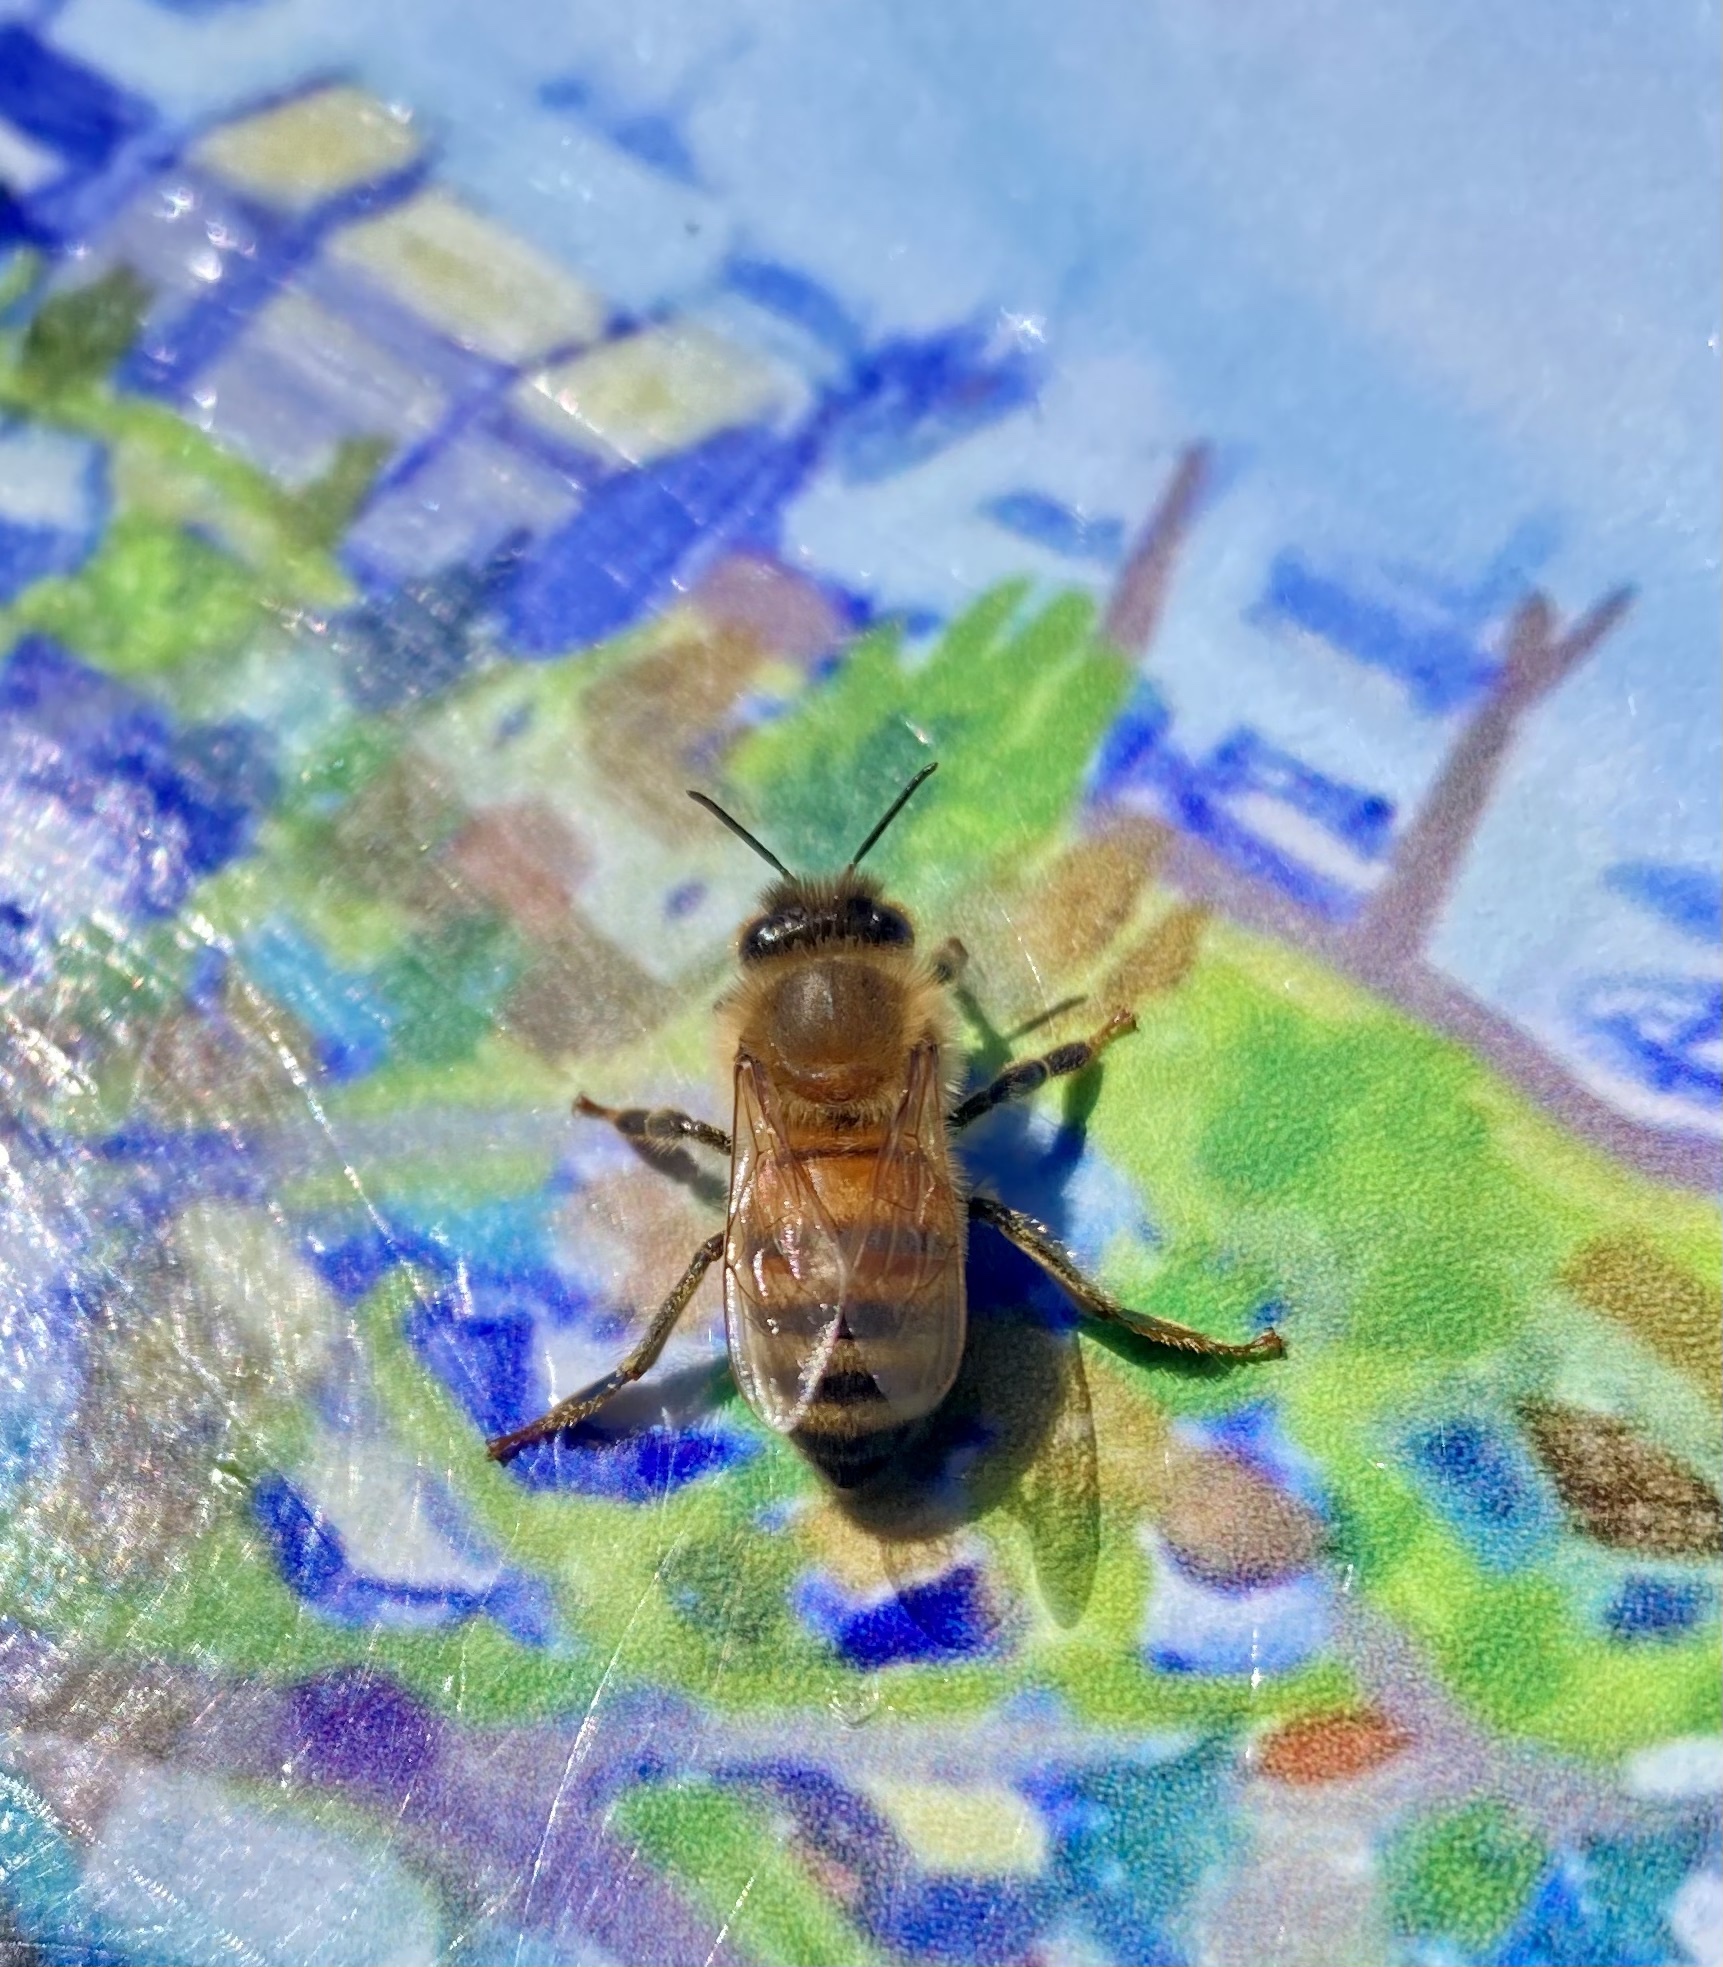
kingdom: Animalia
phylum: Arthropoda
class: Insecta
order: Hymenoptera
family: Apidae
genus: Apis
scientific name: Apis mellifera
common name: Honey bee
